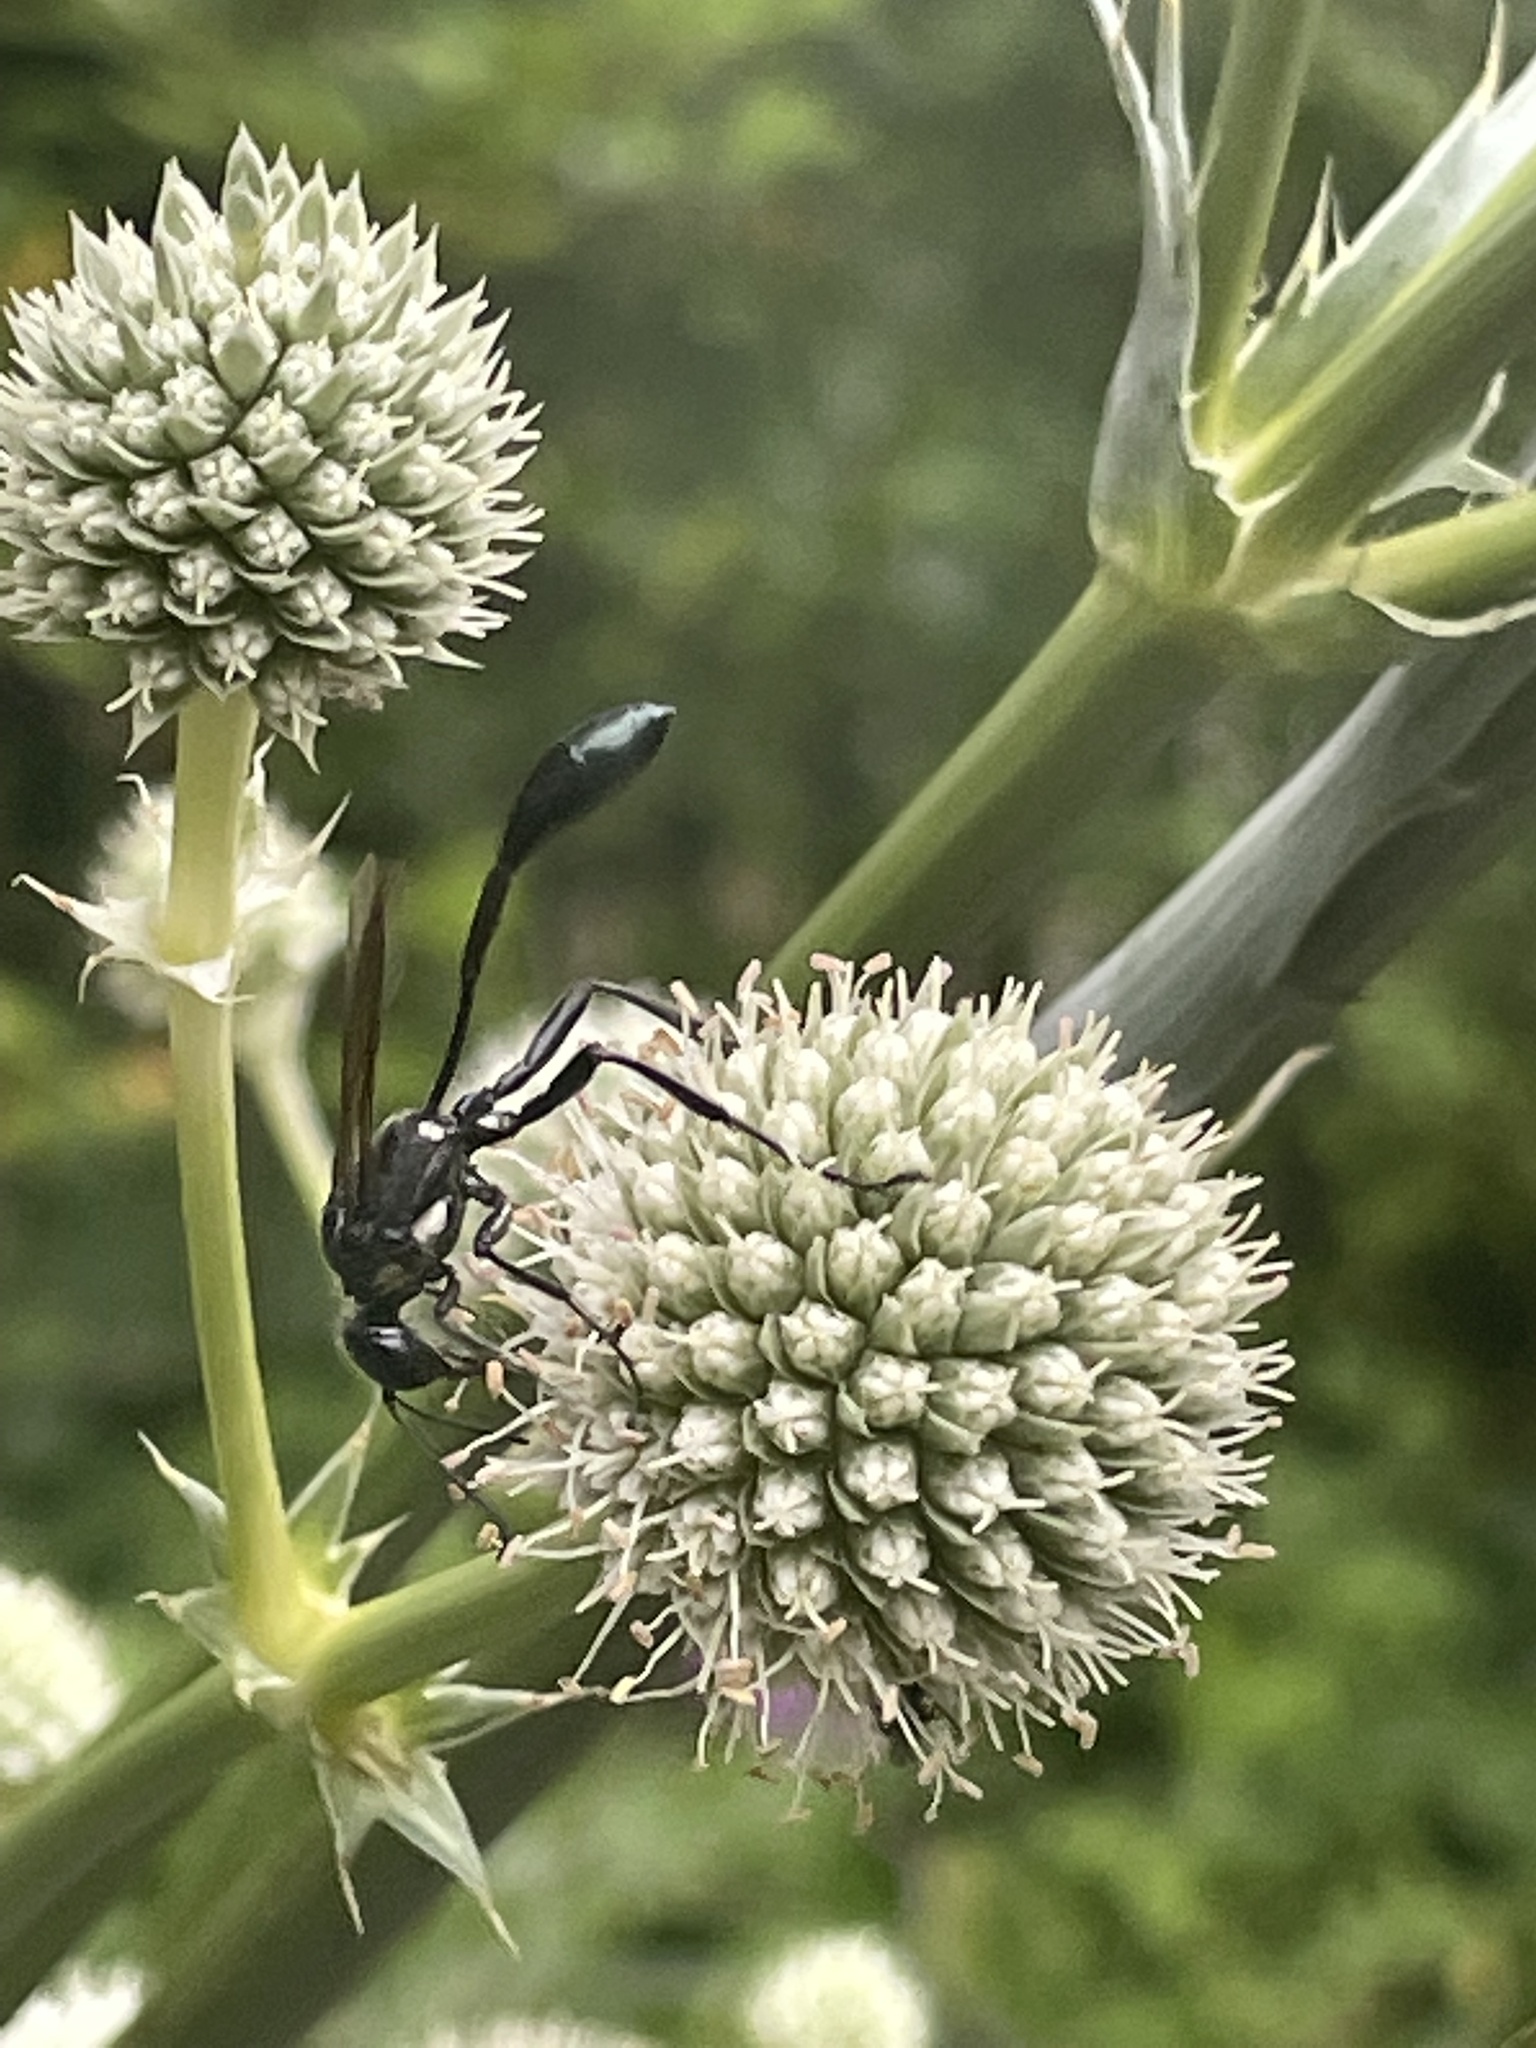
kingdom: Animalia
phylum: Arthropoda
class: Insecta
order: Hymenoptera
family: Sphecidae
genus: Eremnophila
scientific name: Eremnophila aureonotata
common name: Gold-marked thread-waisted wasp
